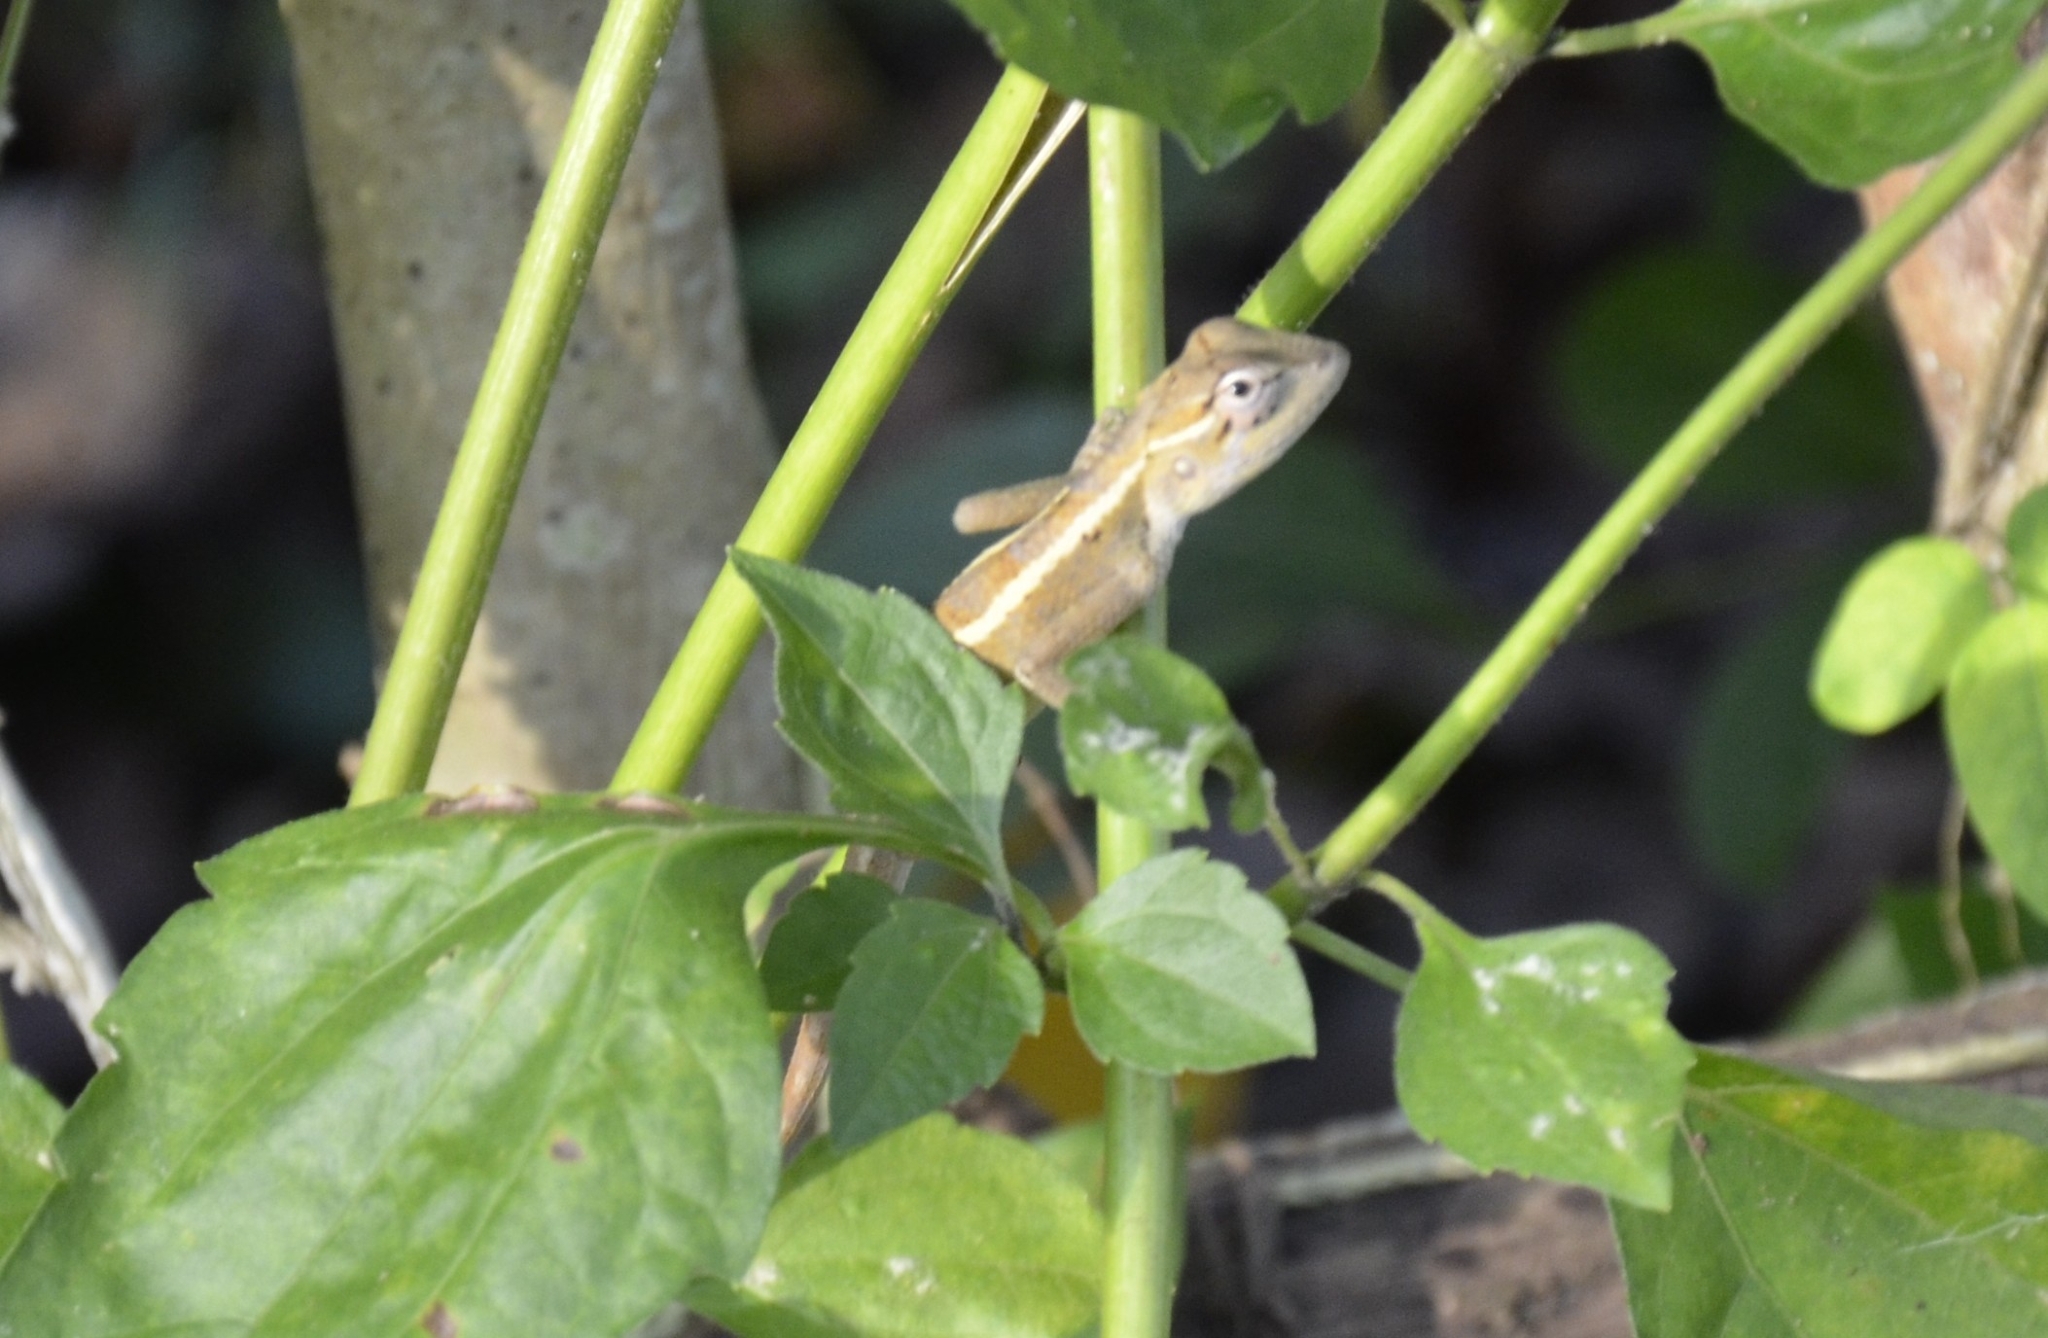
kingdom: Animalia
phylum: Chordata
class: Squamata
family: Agamidae
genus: Calotes
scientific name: Calotes versicolor
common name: Oriental garden lizard
